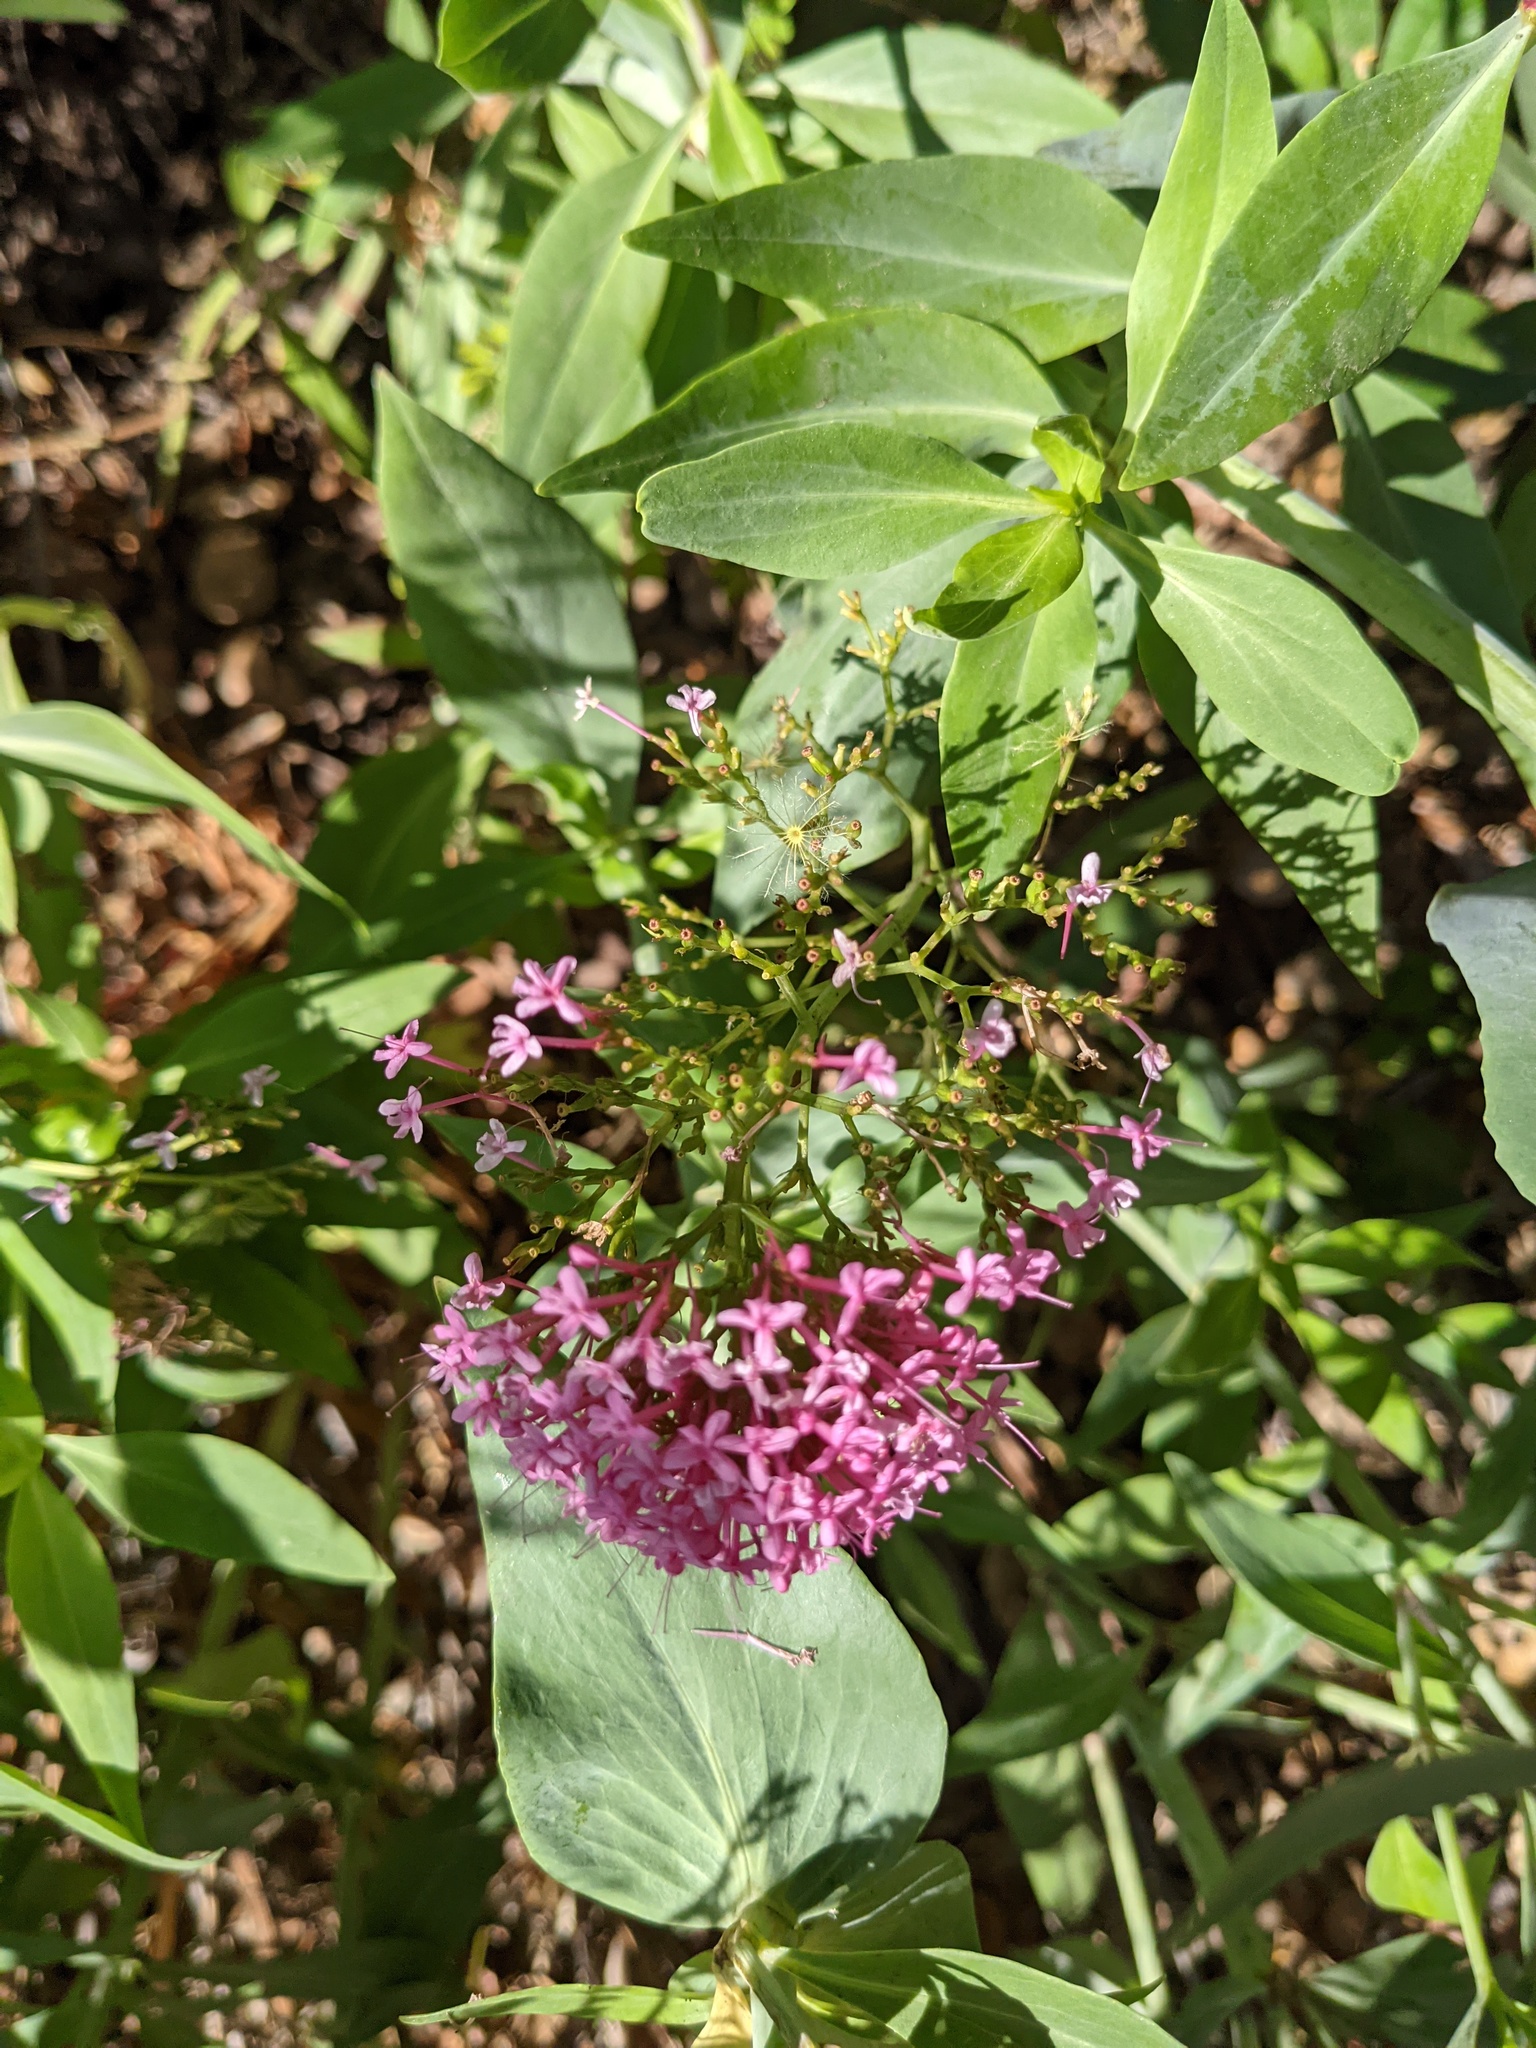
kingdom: Plantae
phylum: Tracheophyta
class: Magnoliopsida
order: Dipsacales
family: Caprifoliaceae
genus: Centranthus
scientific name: Centranthus ruber
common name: Red valerian
